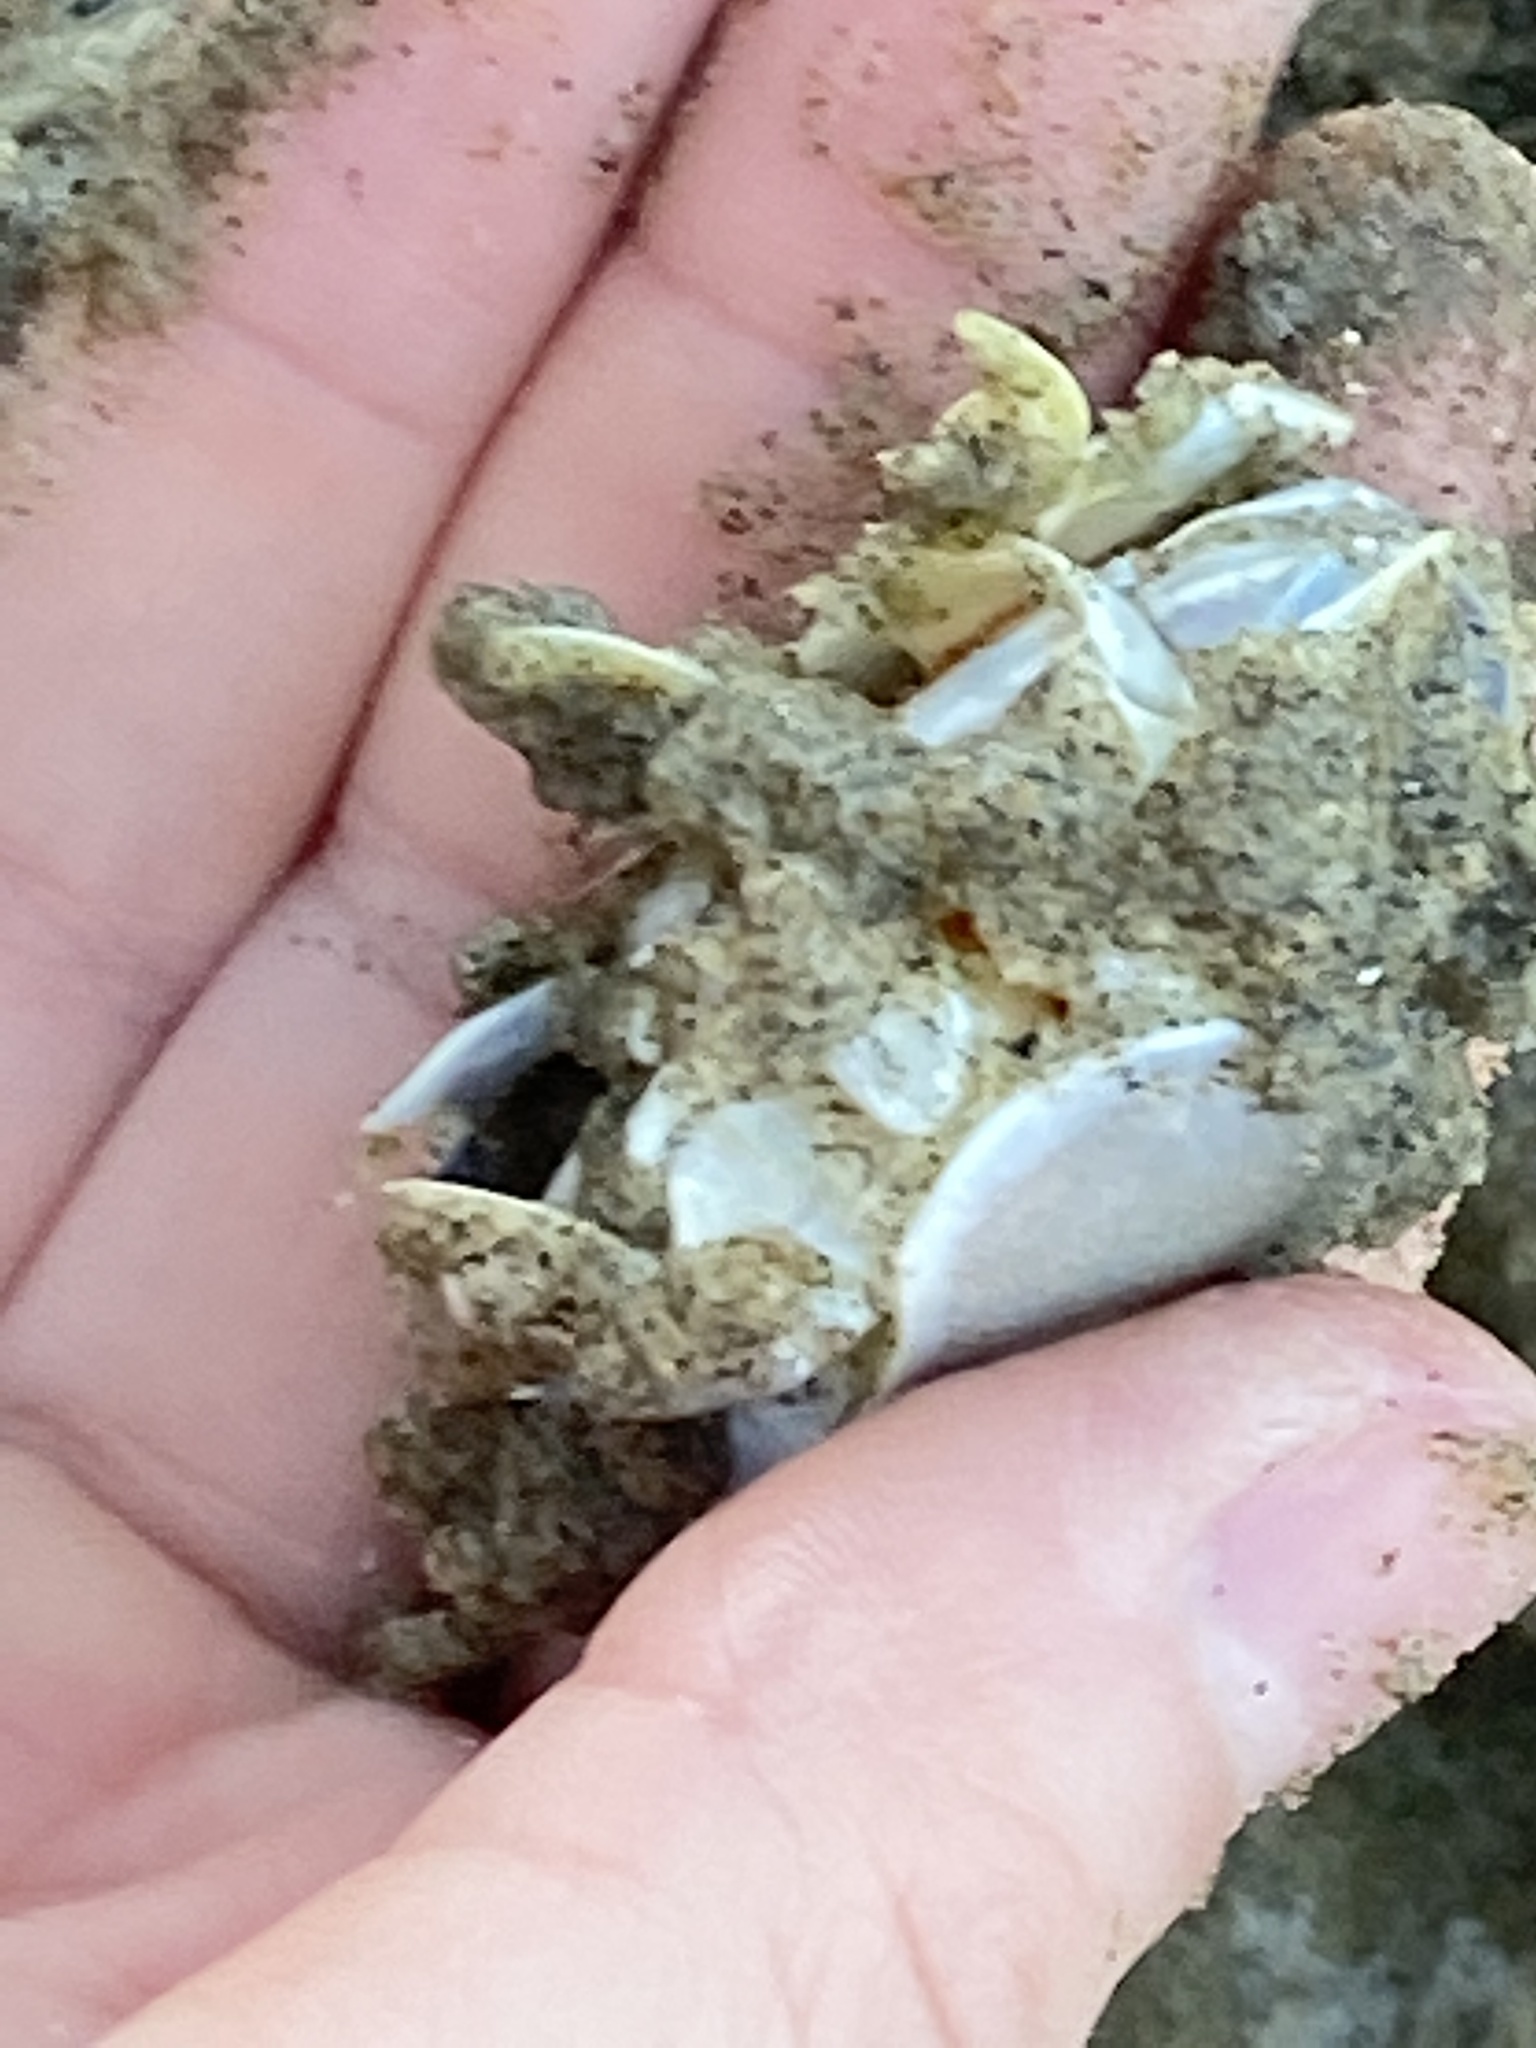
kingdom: Animalia
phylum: Arthropoda
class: Malacostraca
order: Decapoda
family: Hippidae
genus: Emerita
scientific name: Emerita analoga
